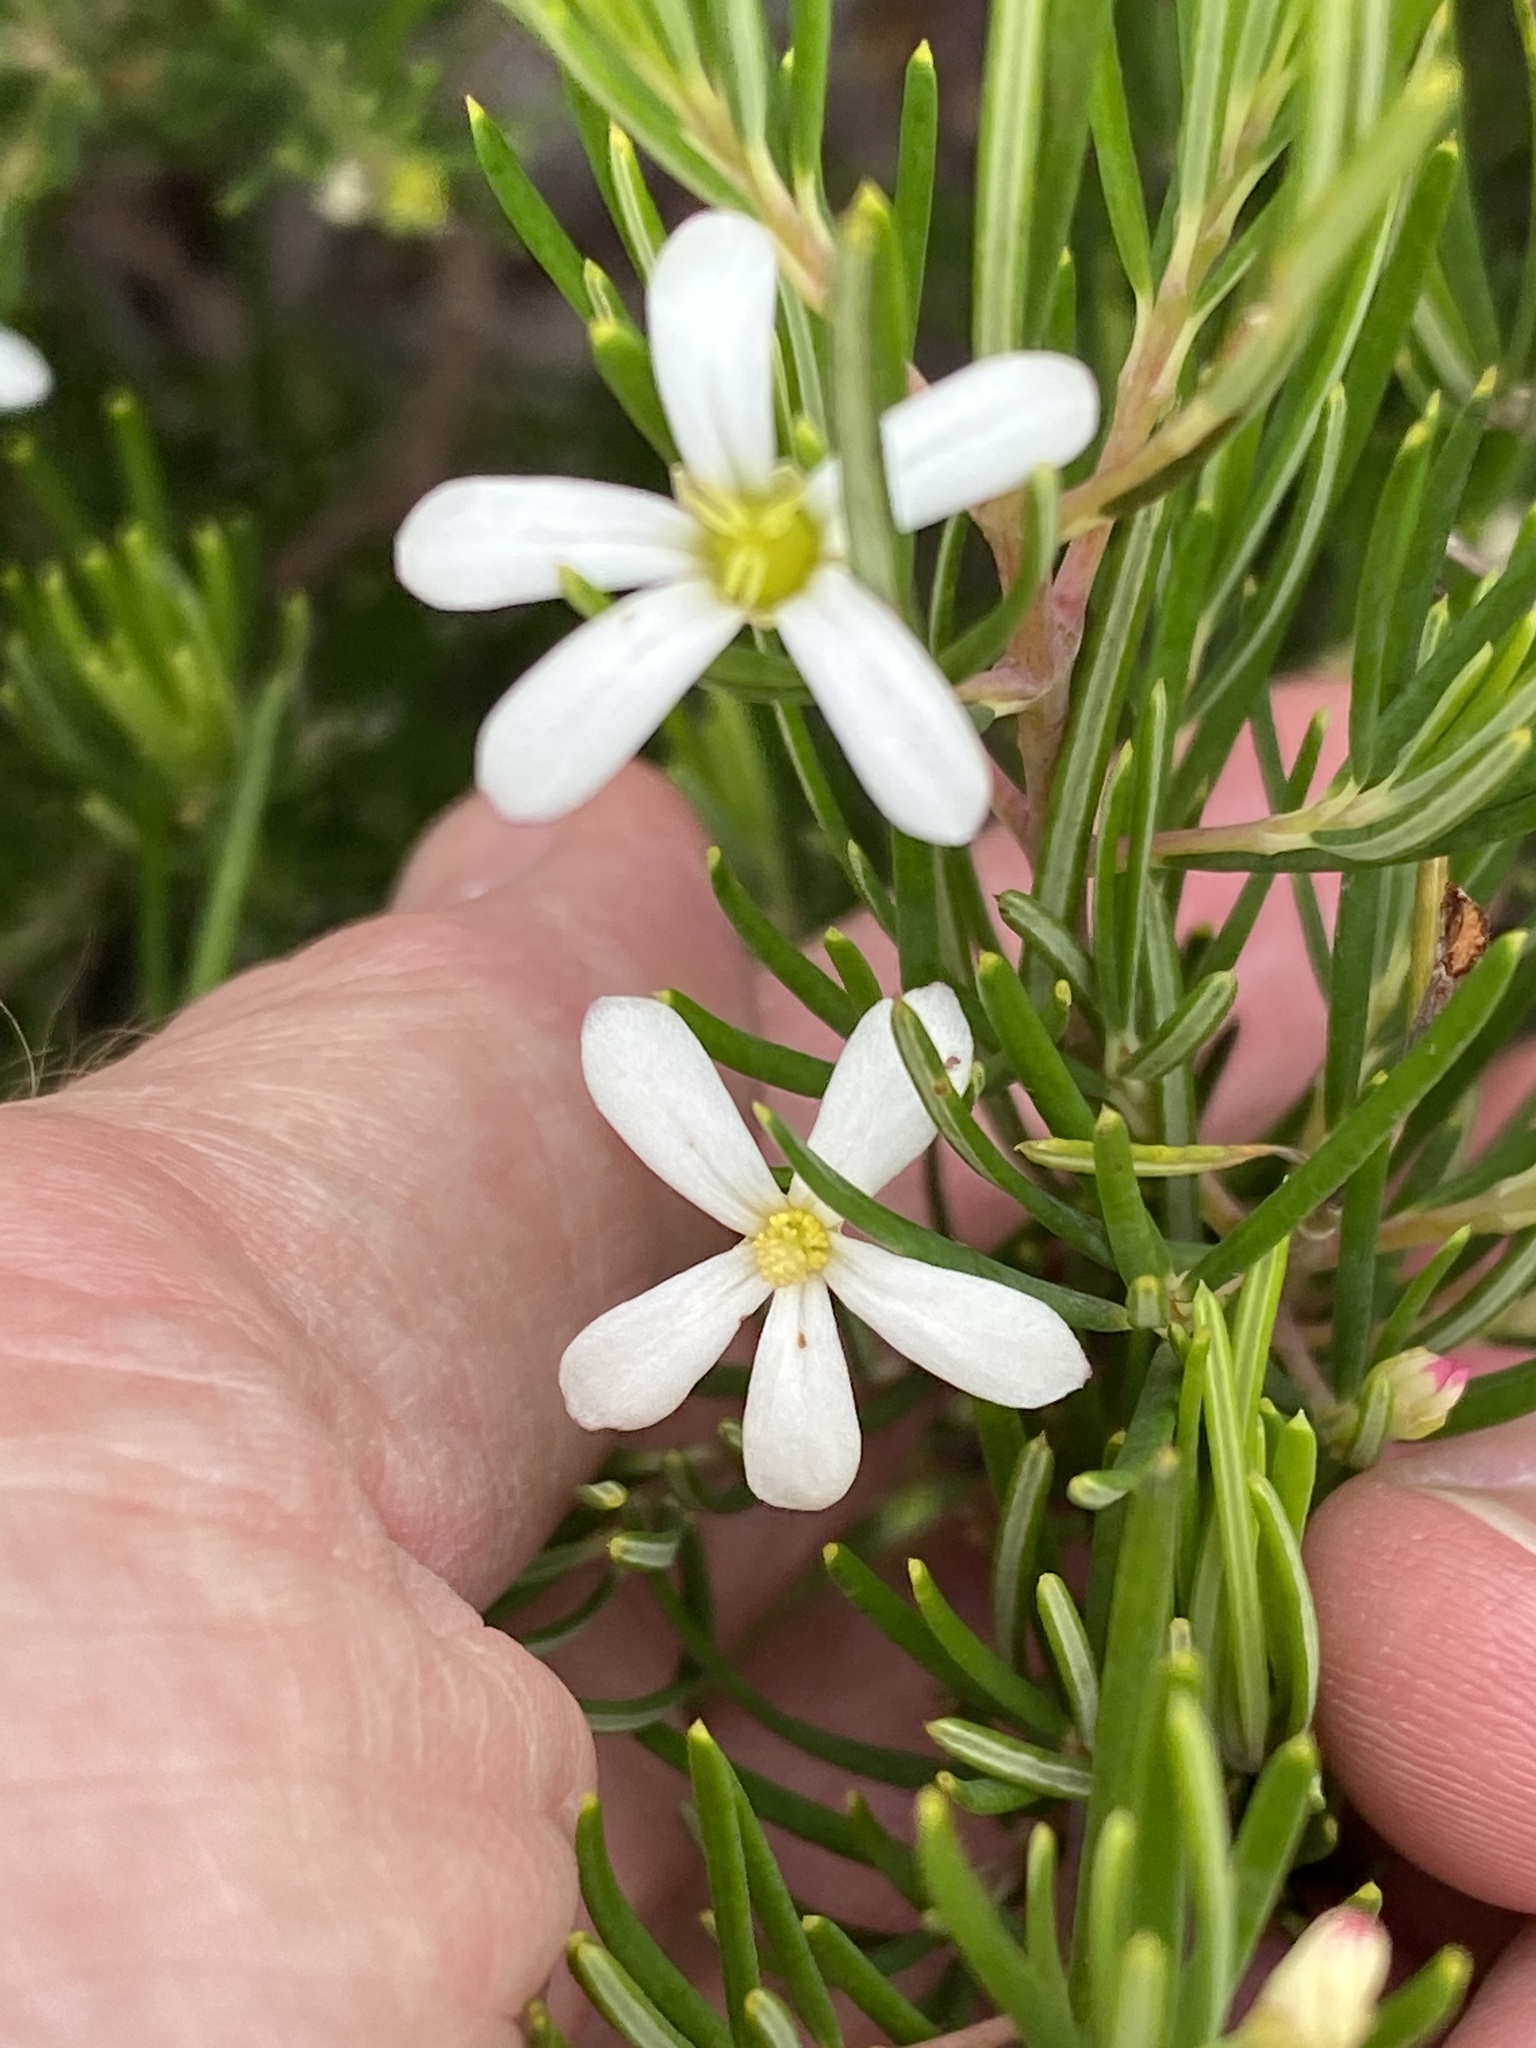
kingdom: Plantae
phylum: Tracheophyta
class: Magnoliopsida
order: Malpighiales
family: Euphorbiaceae
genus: Ricinocarpos
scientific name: Ricinocarpos pinifolius
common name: Weddingbush
